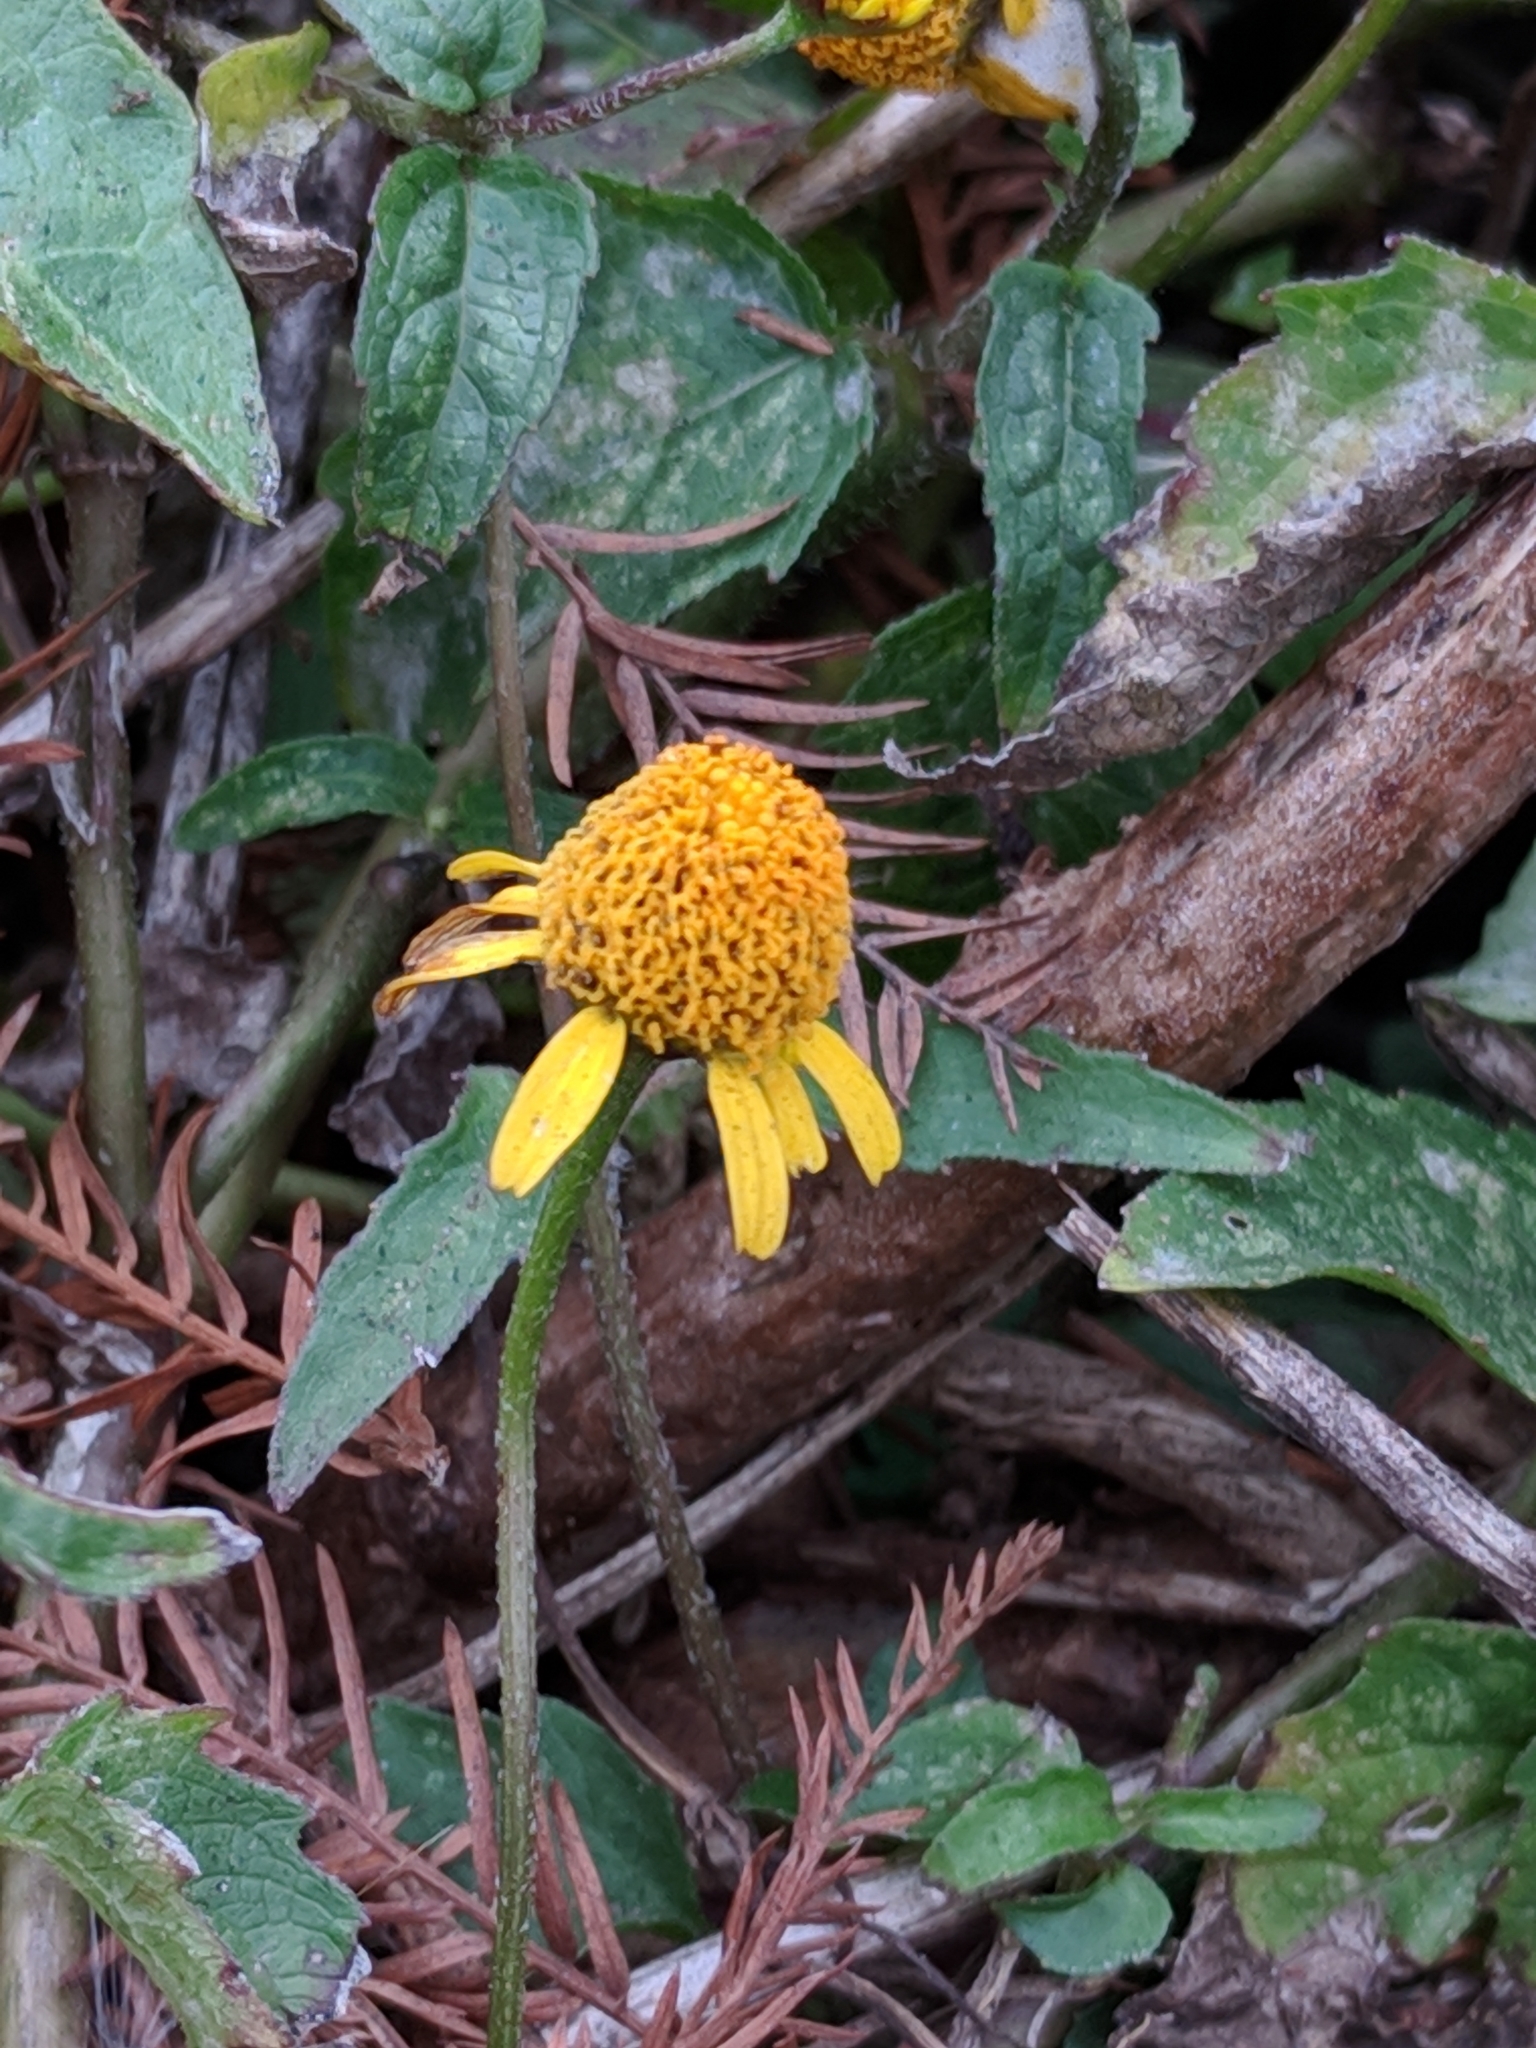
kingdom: Plantae
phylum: Tracheophyta
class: Magnoliopsida
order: Asterales
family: Asteraceae
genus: Acmella
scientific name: Acmella repens
